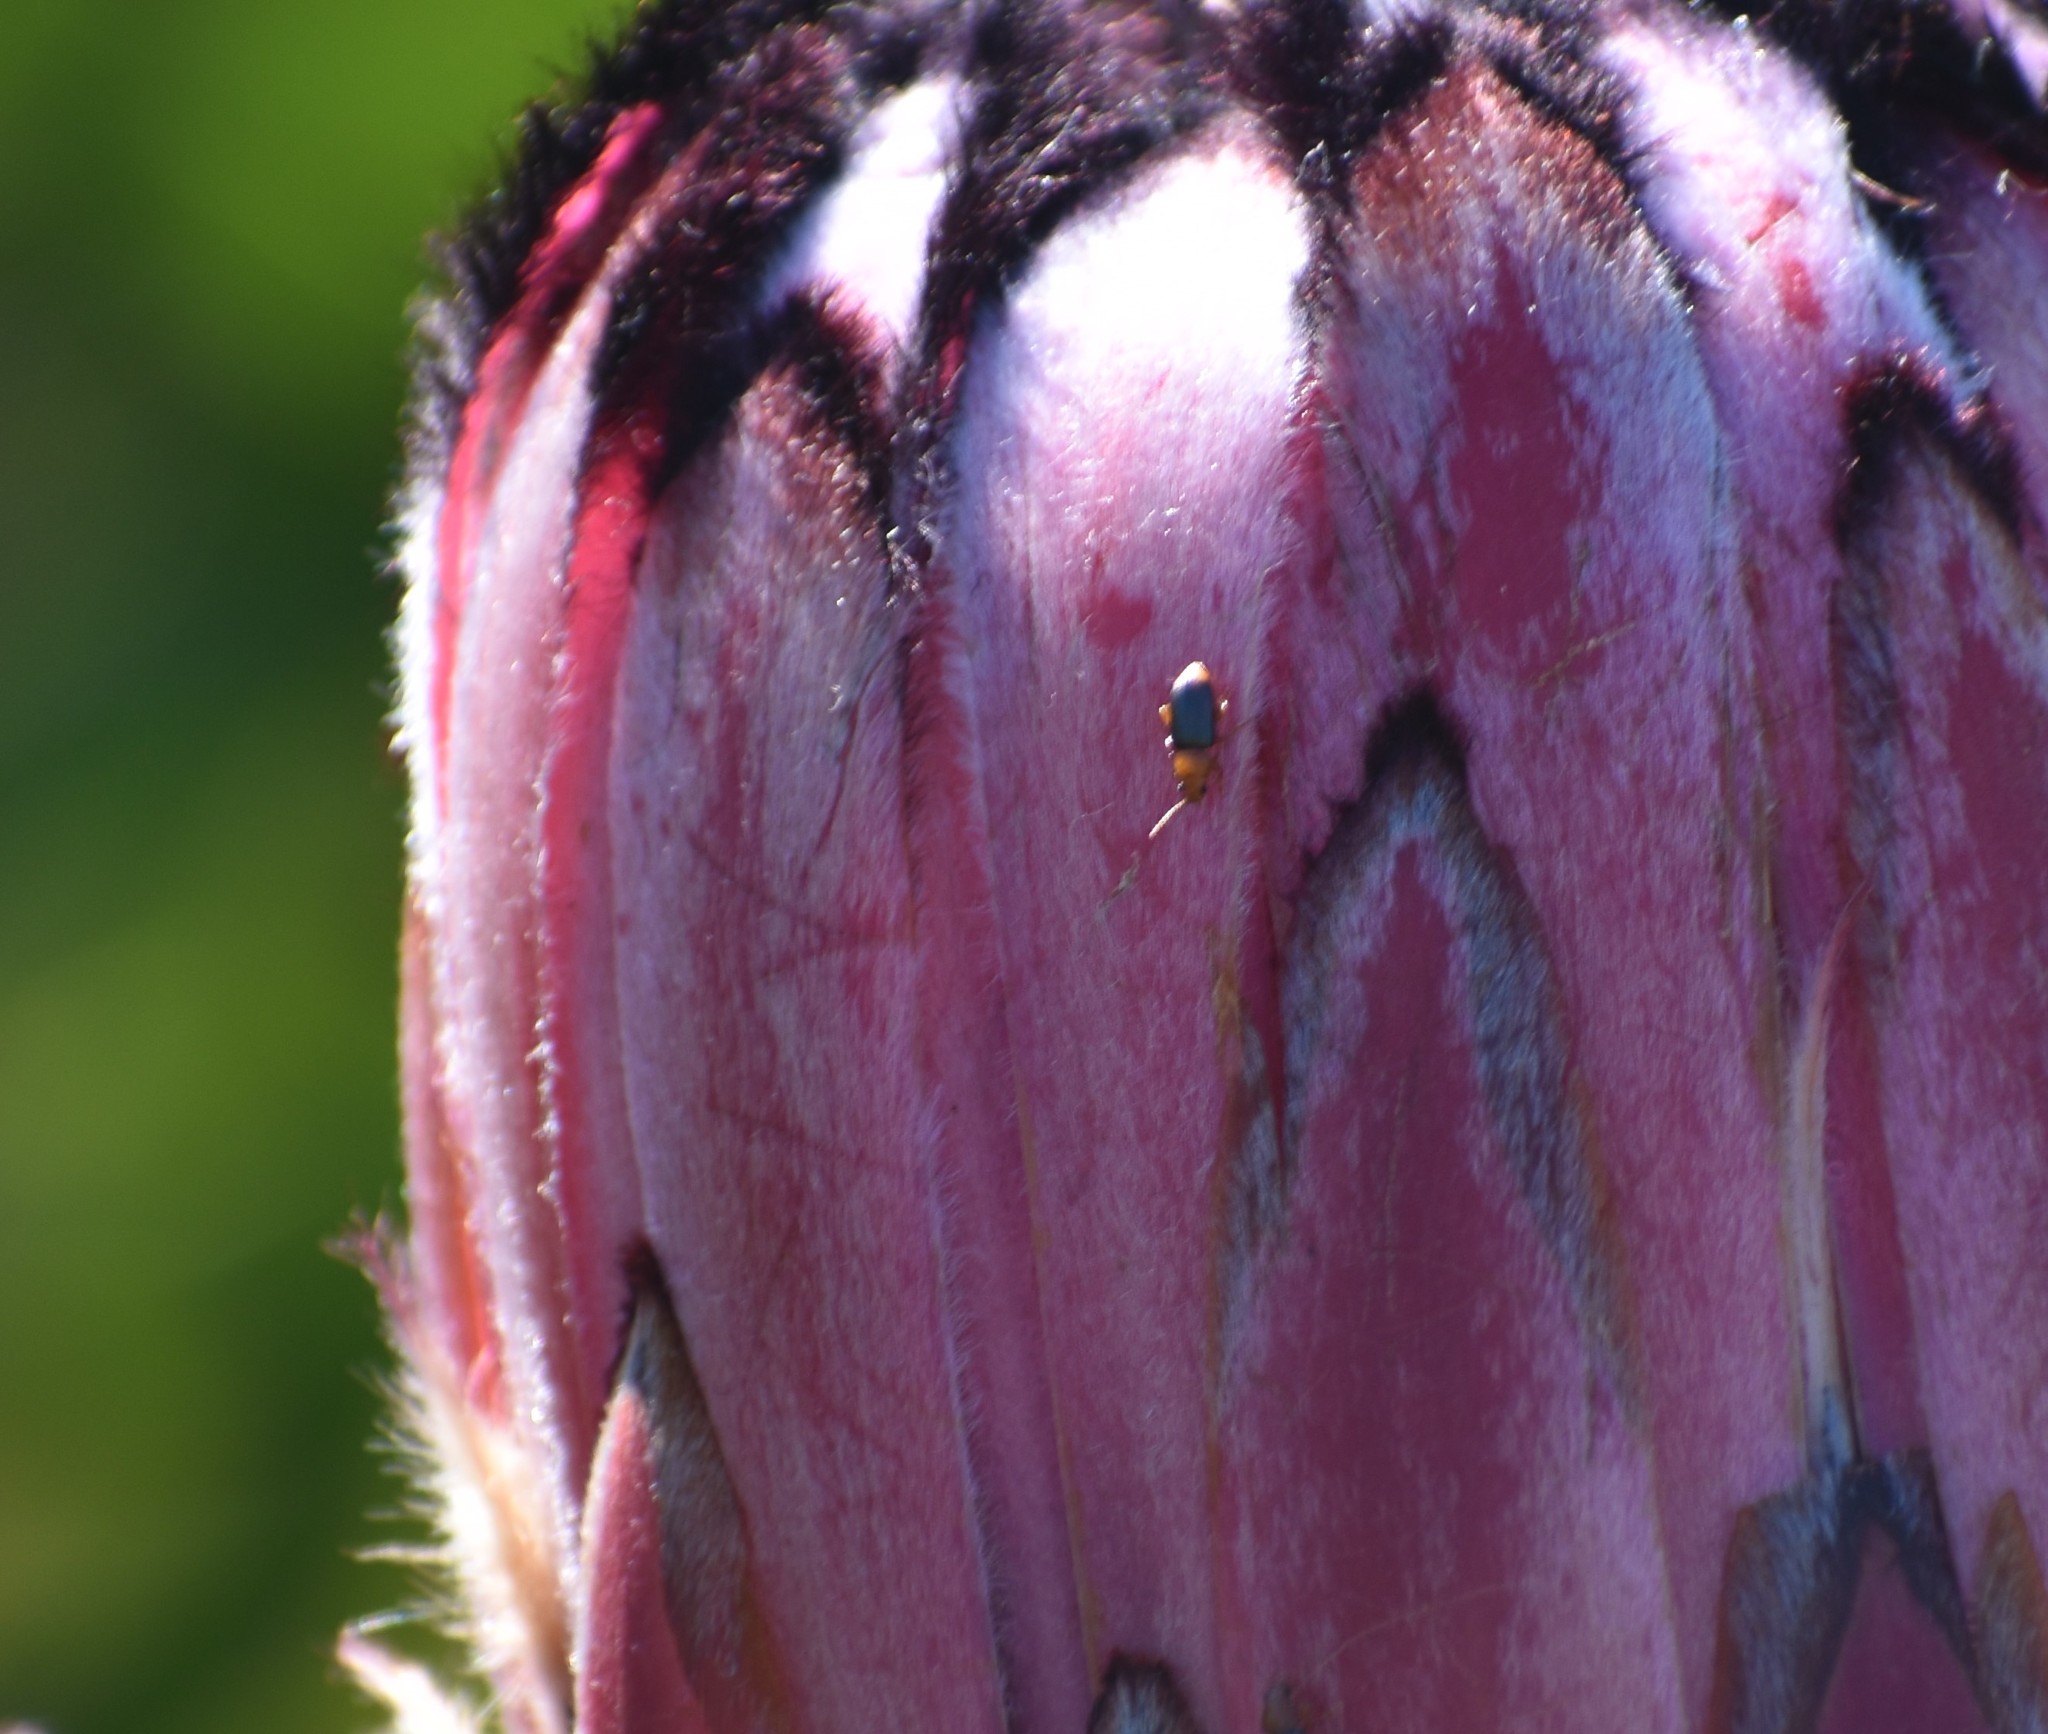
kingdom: Animalia
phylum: Arthropoda
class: Insecta
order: Coleoptera
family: Chrysomelidae
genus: Chirodica
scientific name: Chirodica
